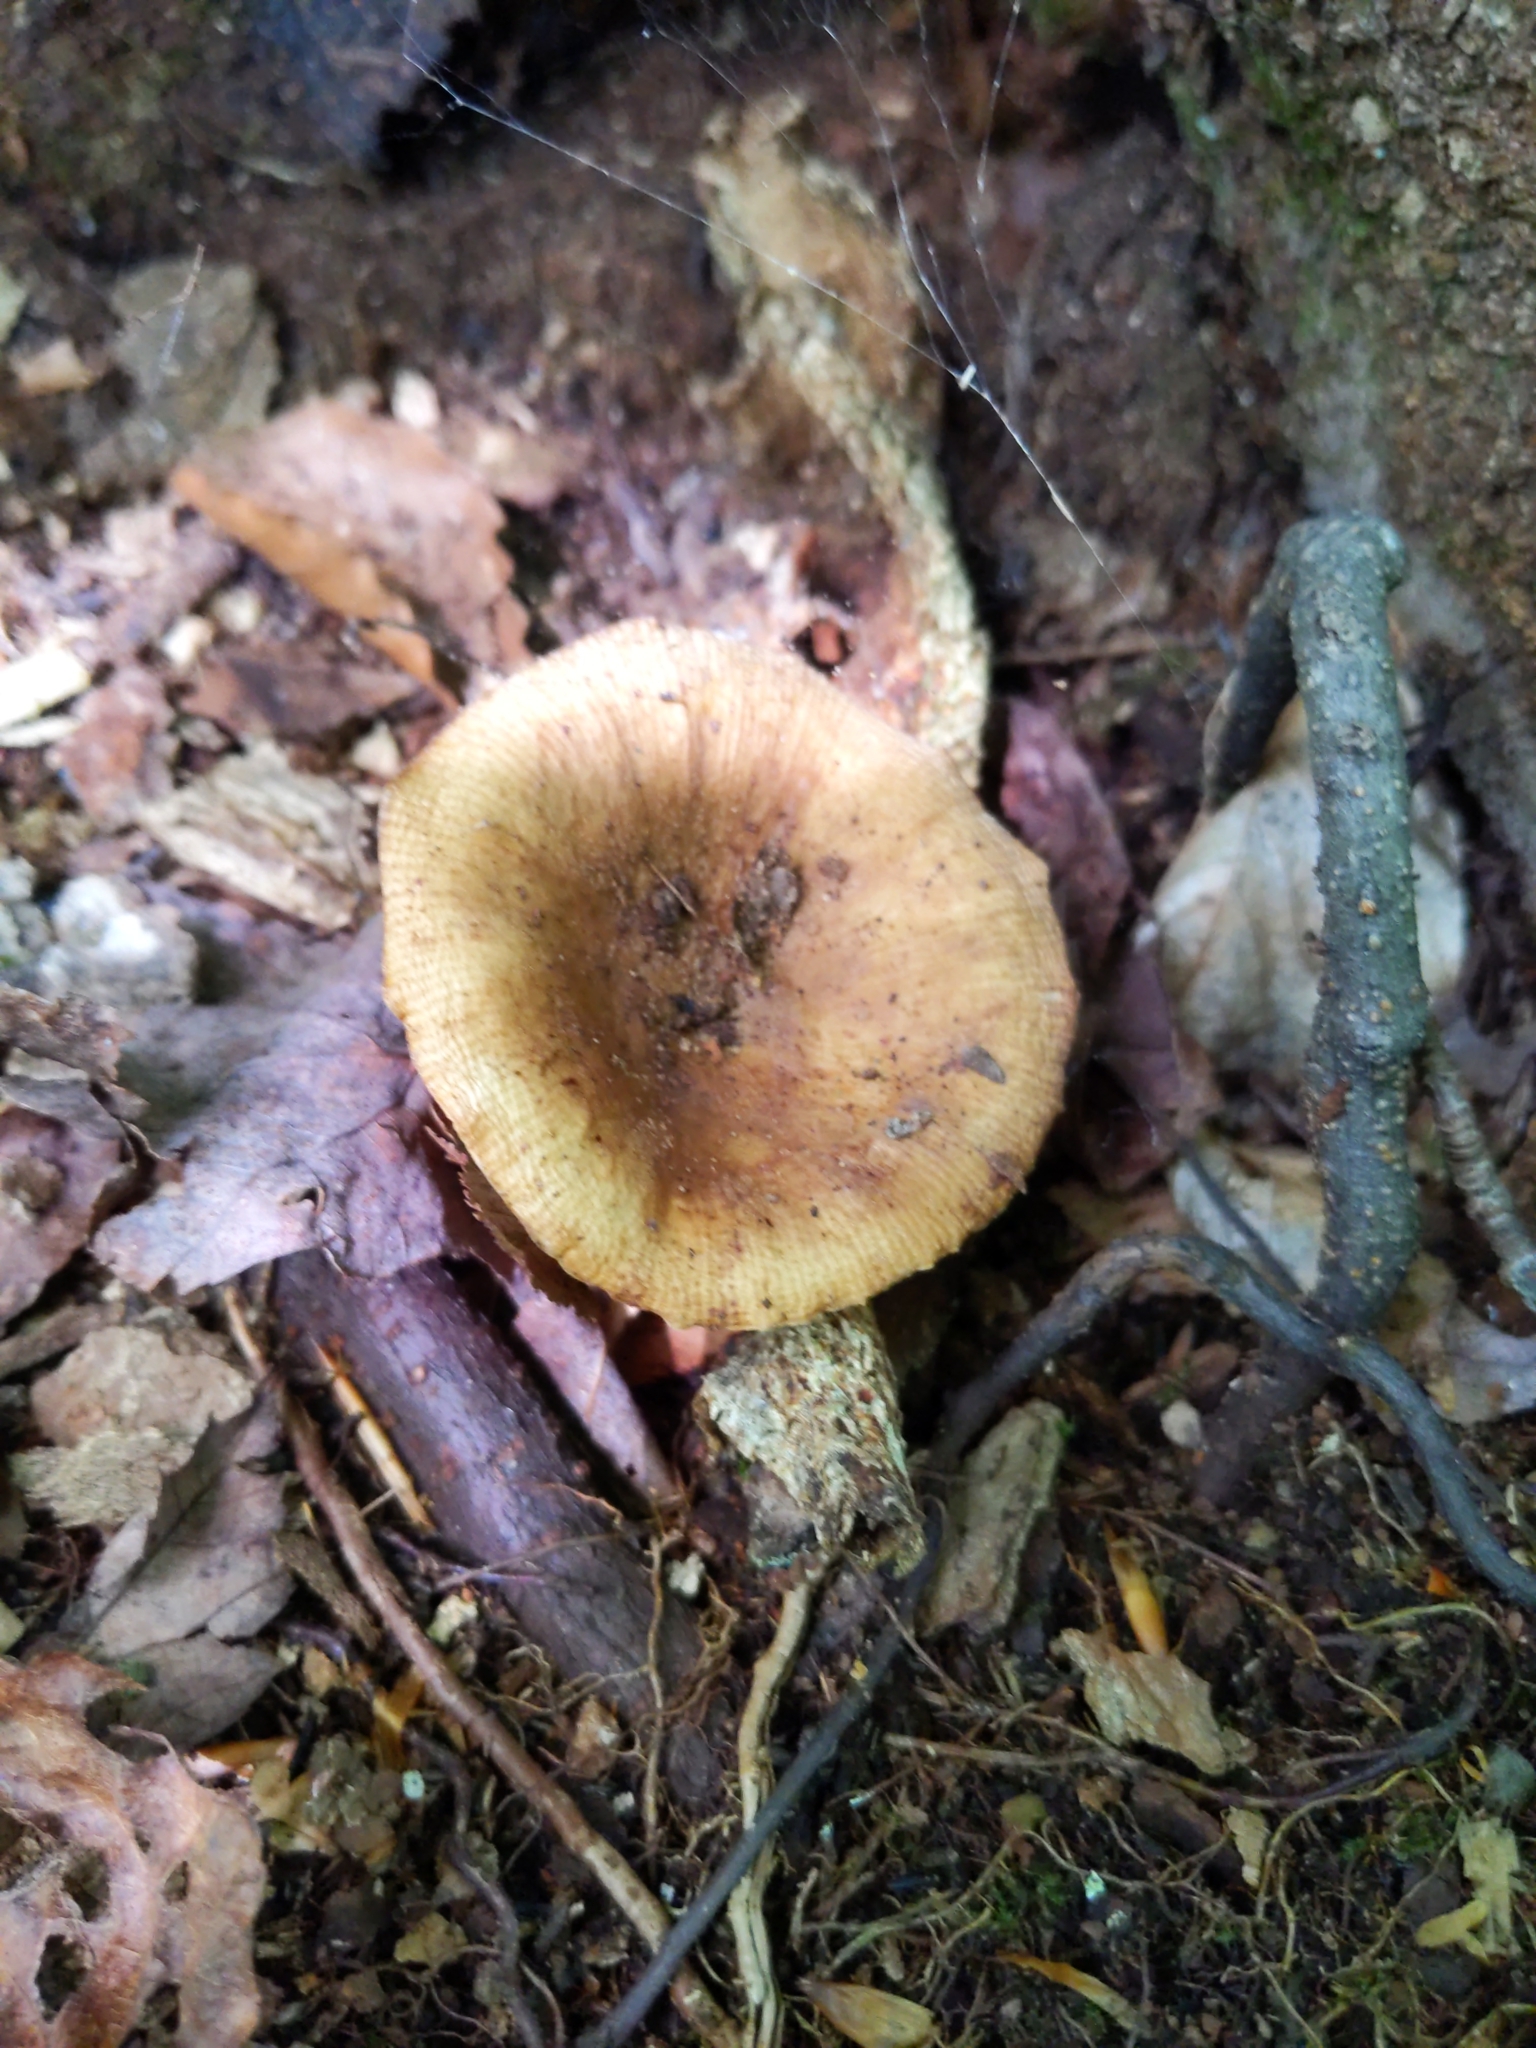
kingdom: Fungi
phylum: Basidiomycota
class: Agaricomycetes
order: Russulales
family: Russulaceae
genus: Russula
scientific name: Russula
